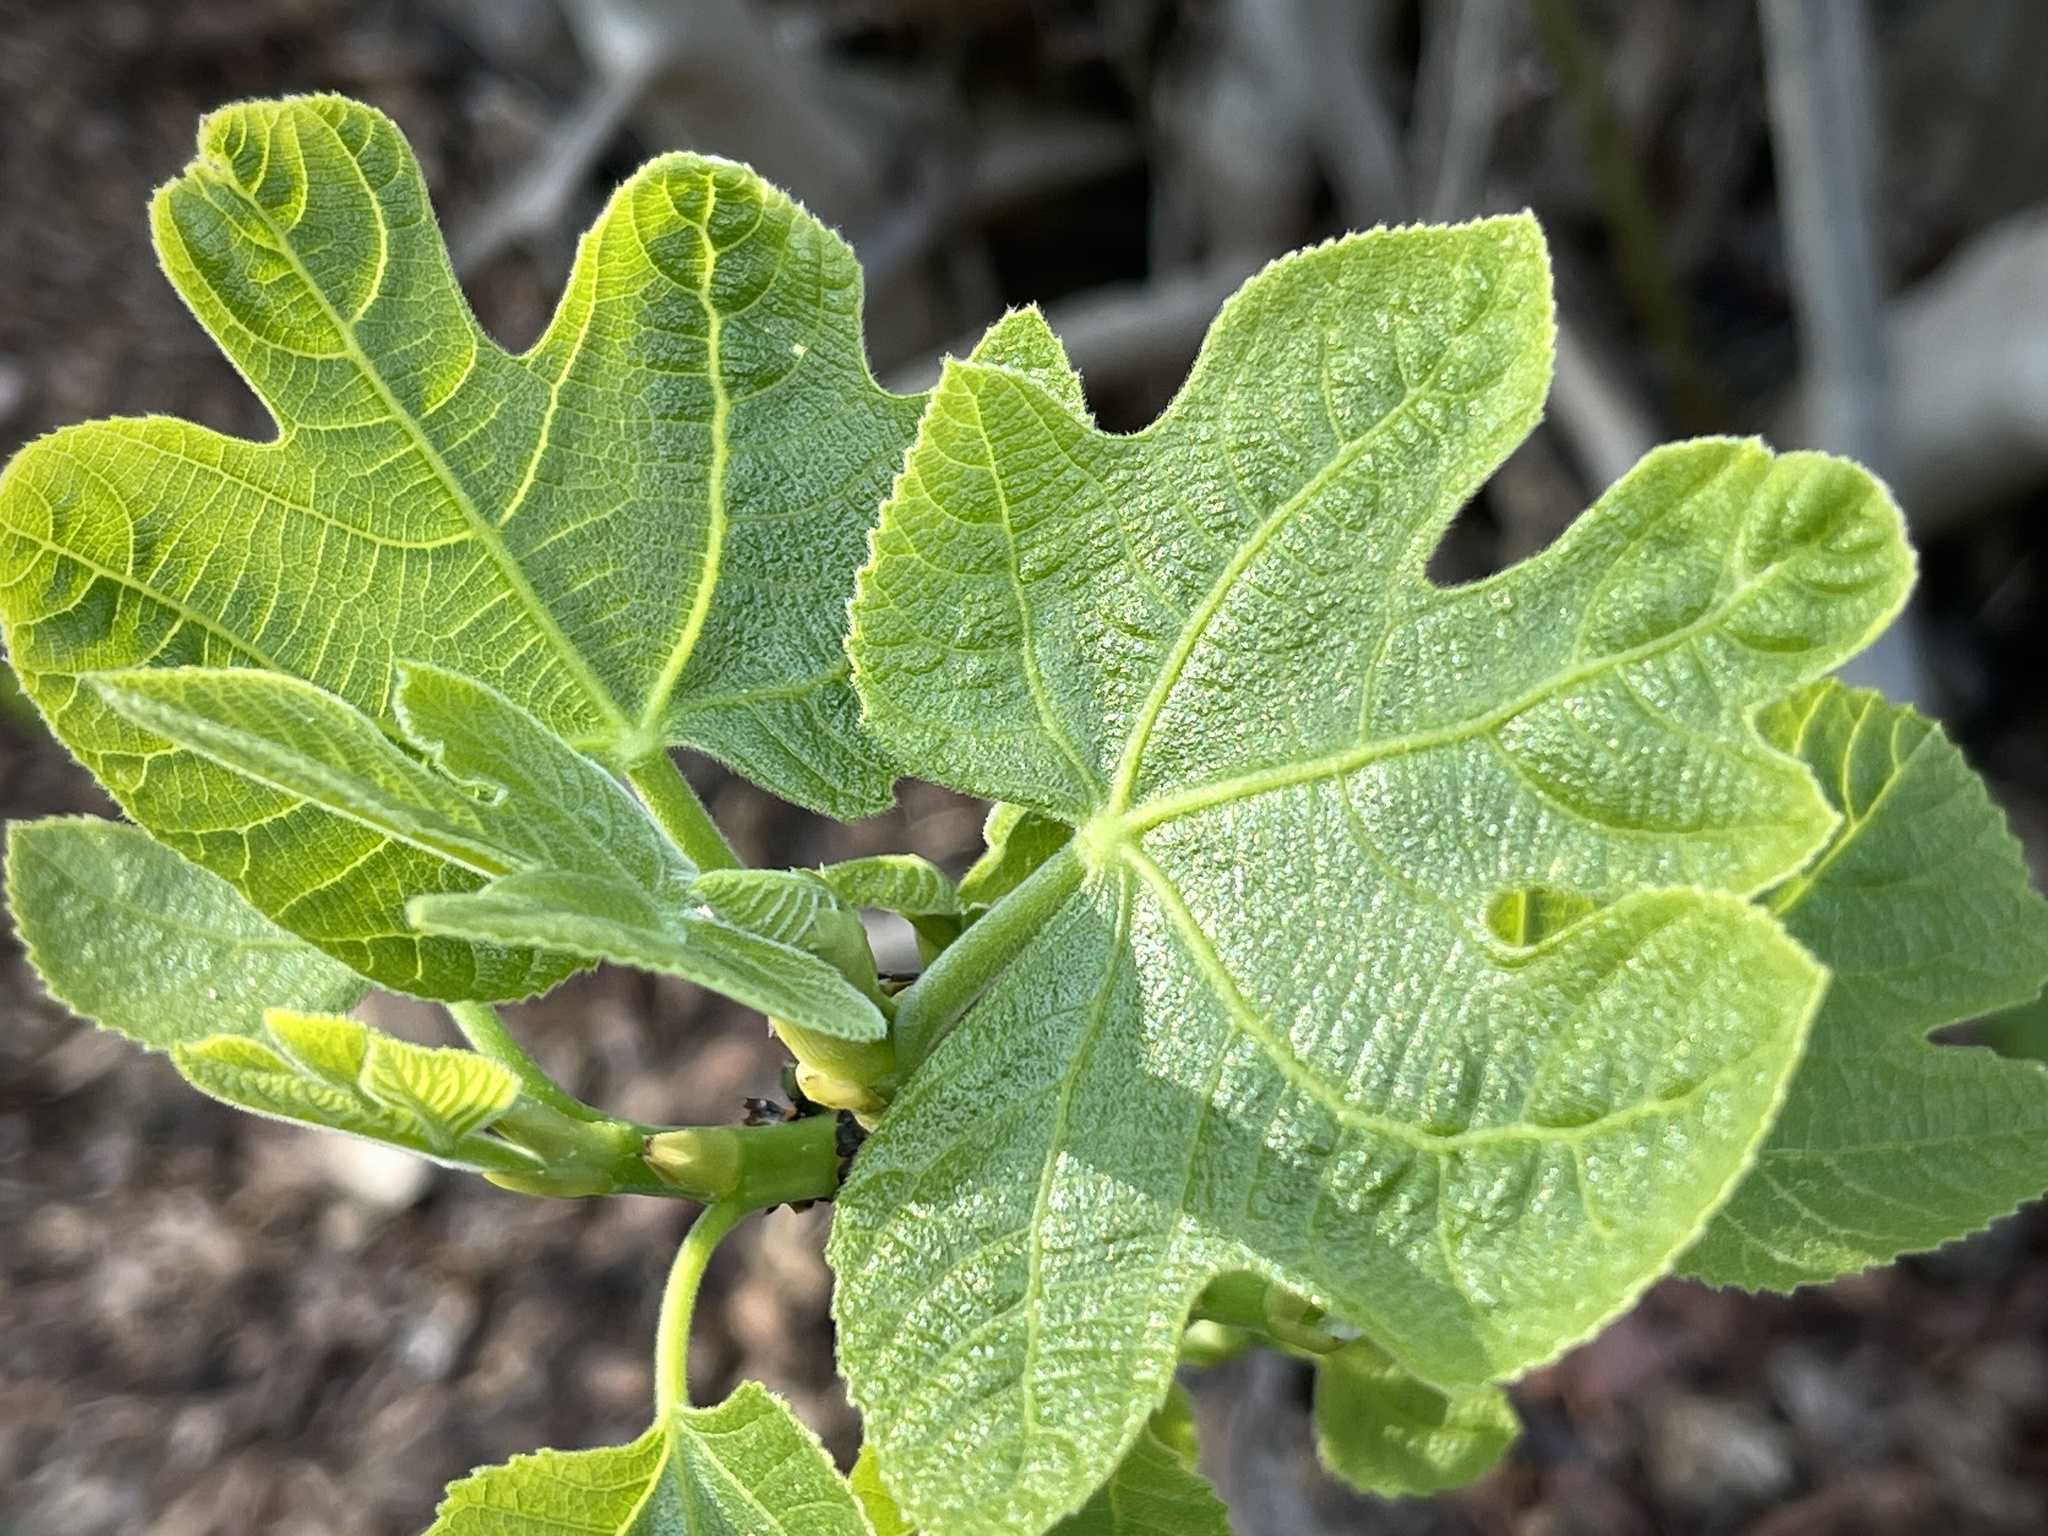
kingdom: Plantae
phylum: Tracheophyta
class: Magnoliopsida
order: Rosales
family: Moraceae
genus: Ficus
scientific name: Ficus carica
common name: Fig
